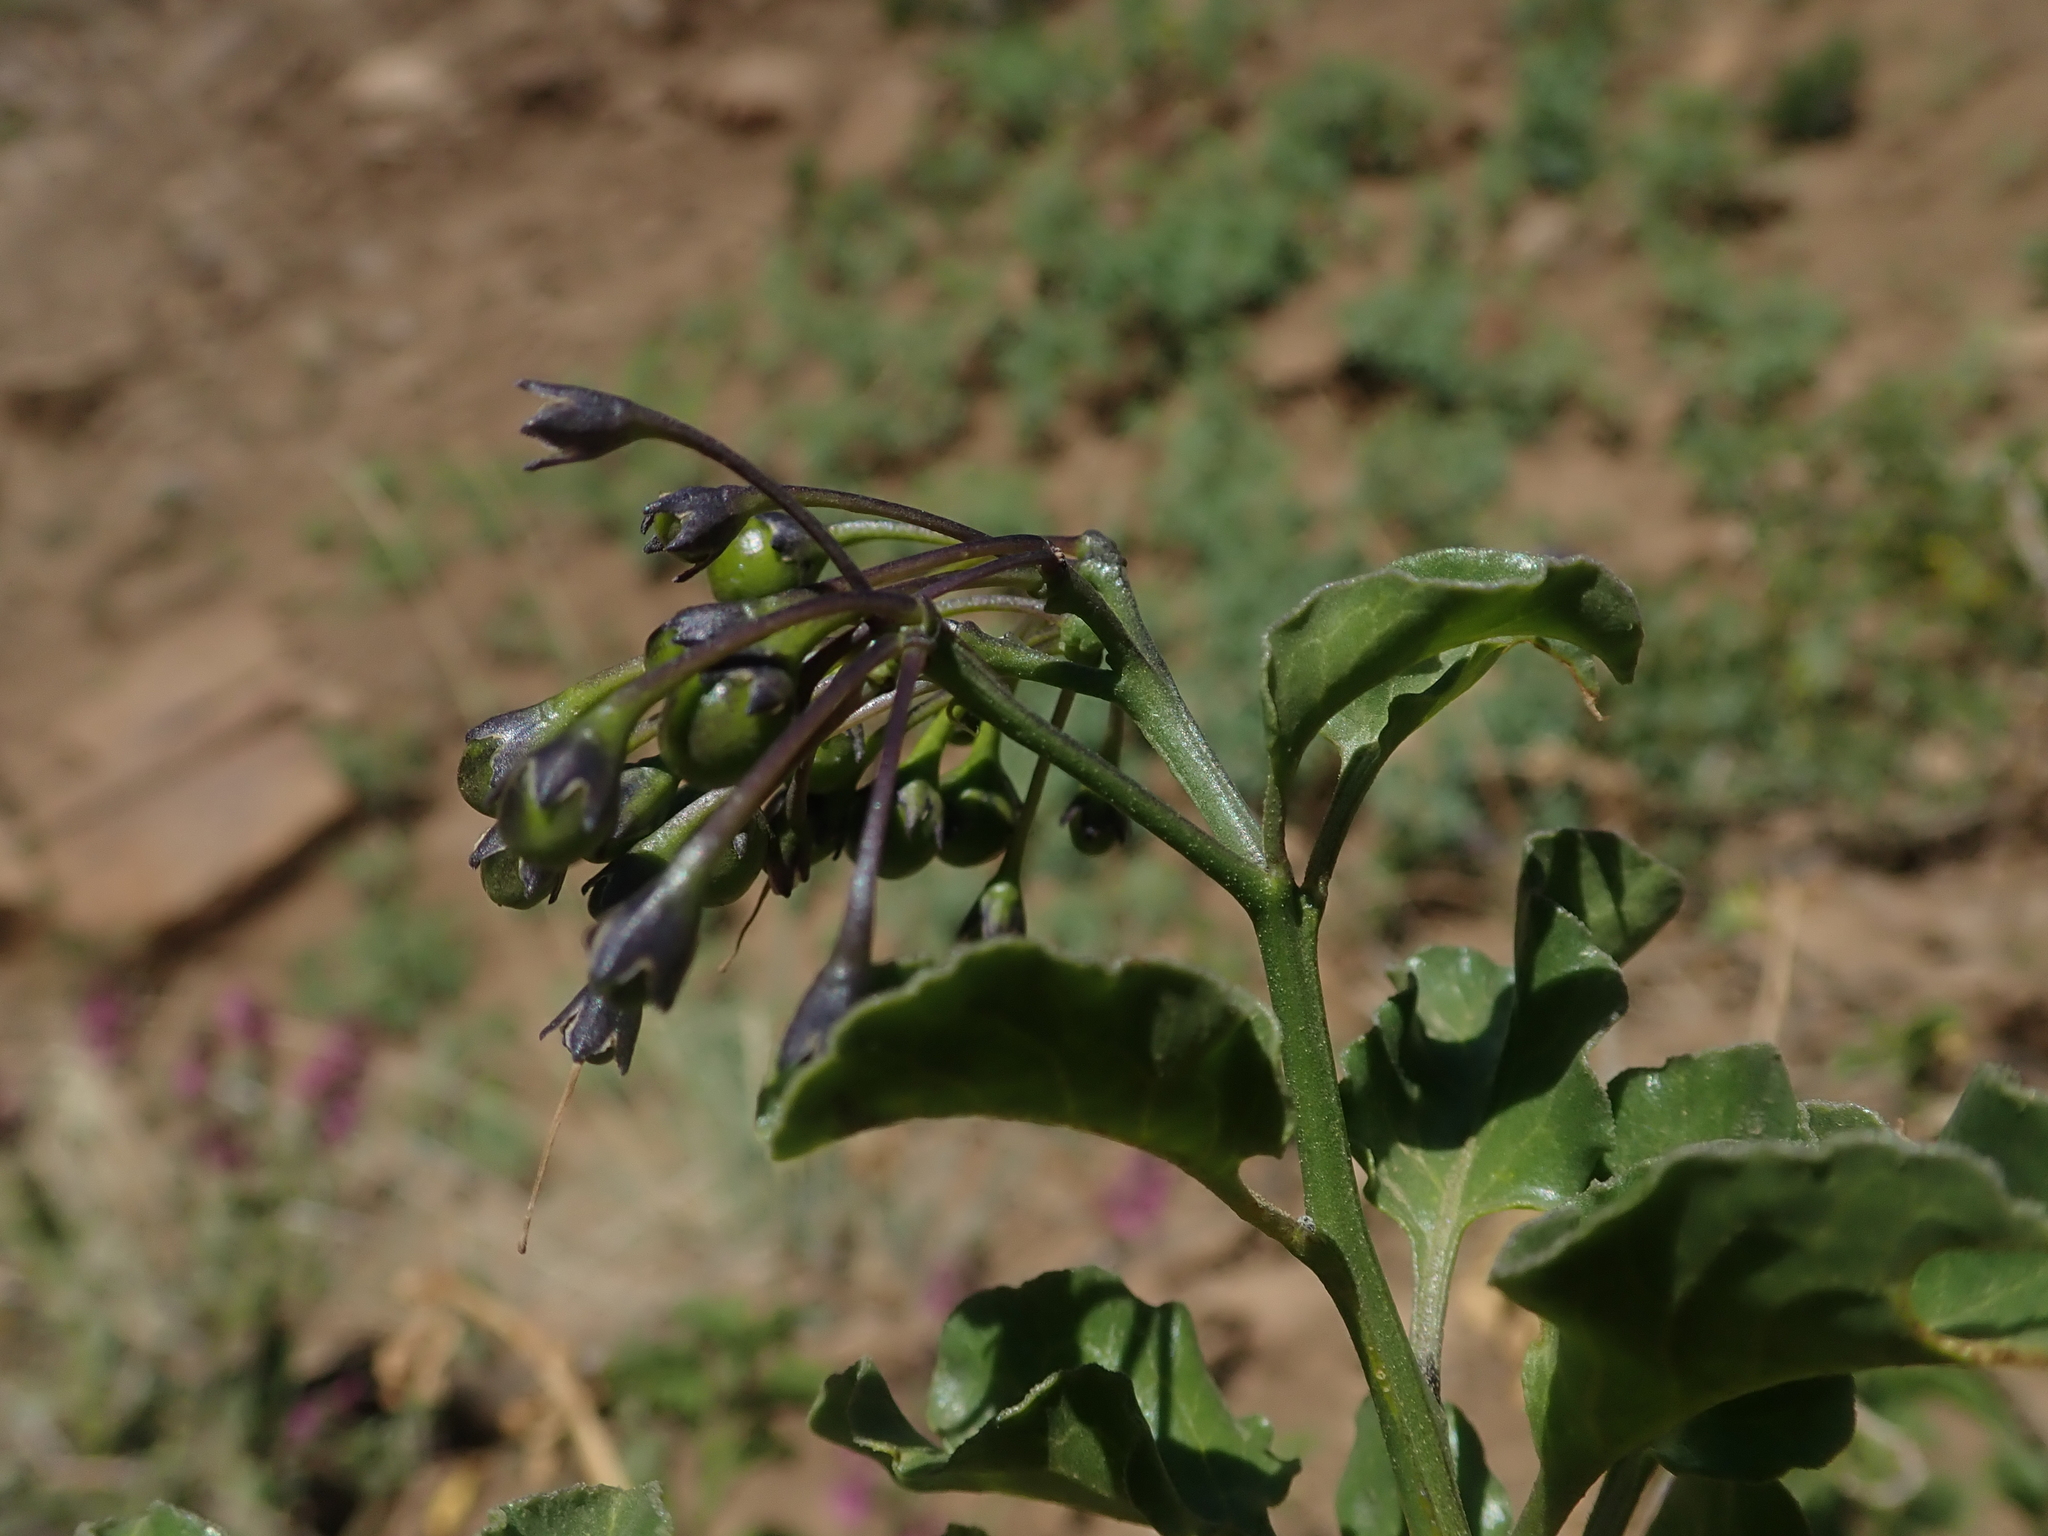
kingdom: Plantae
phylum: Tracheophyta
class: Magnoliopsida
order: Solanales
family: Solanaceae
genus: Solanum
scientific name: Solanum crispum
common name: Chilean nightshade
